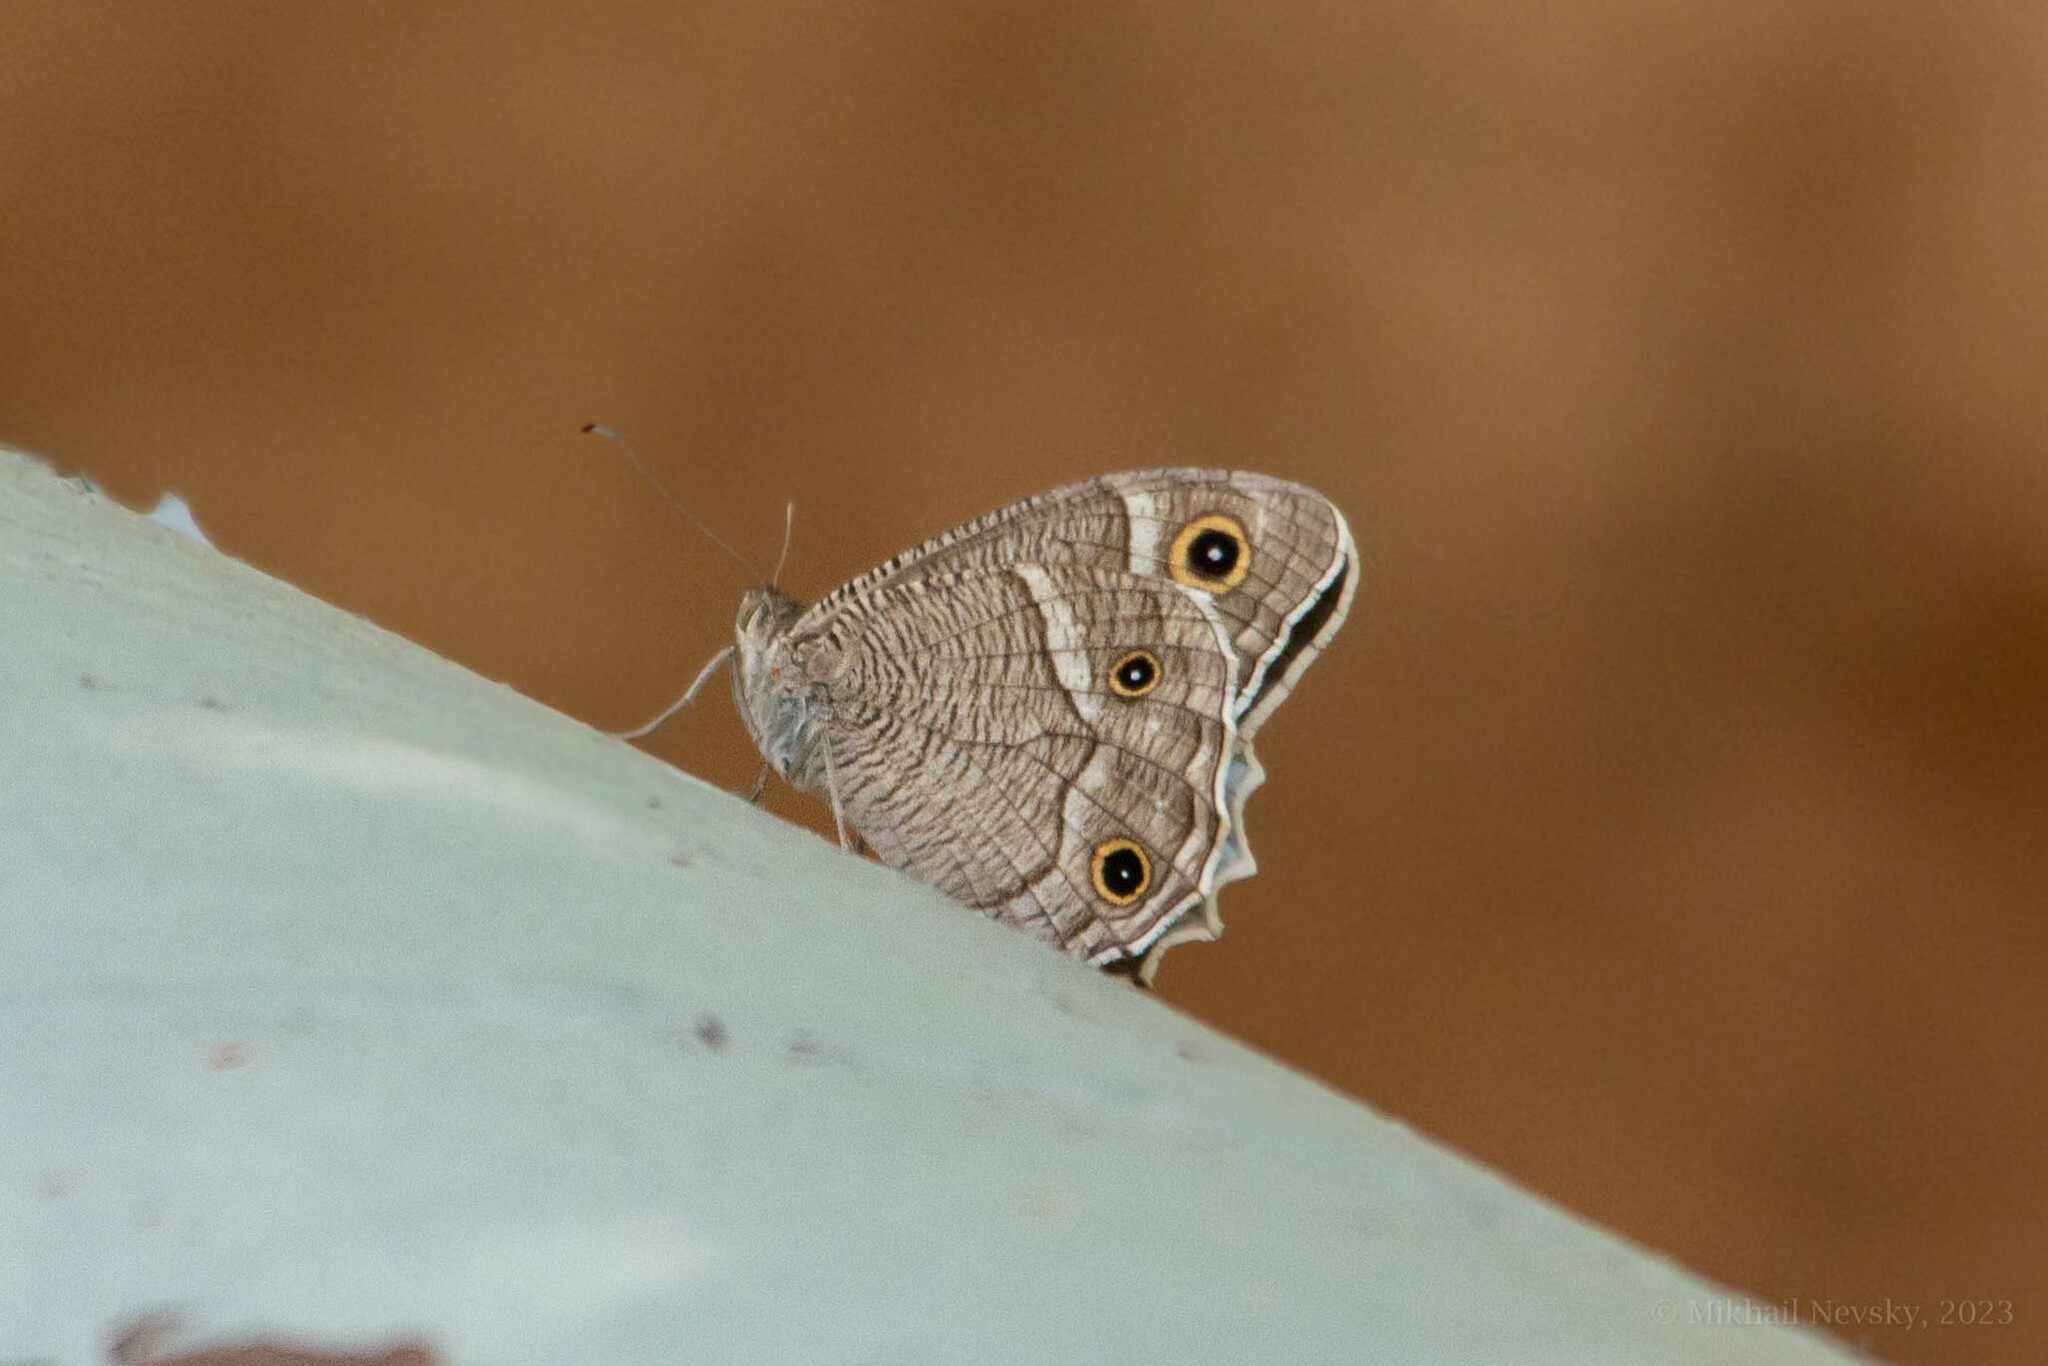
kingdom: Animalia
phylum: Arthropoda
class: Insecta
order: Lepidoptera
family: Nymphalidae
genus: Hipparchia
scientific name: Hipparchia parisatis
